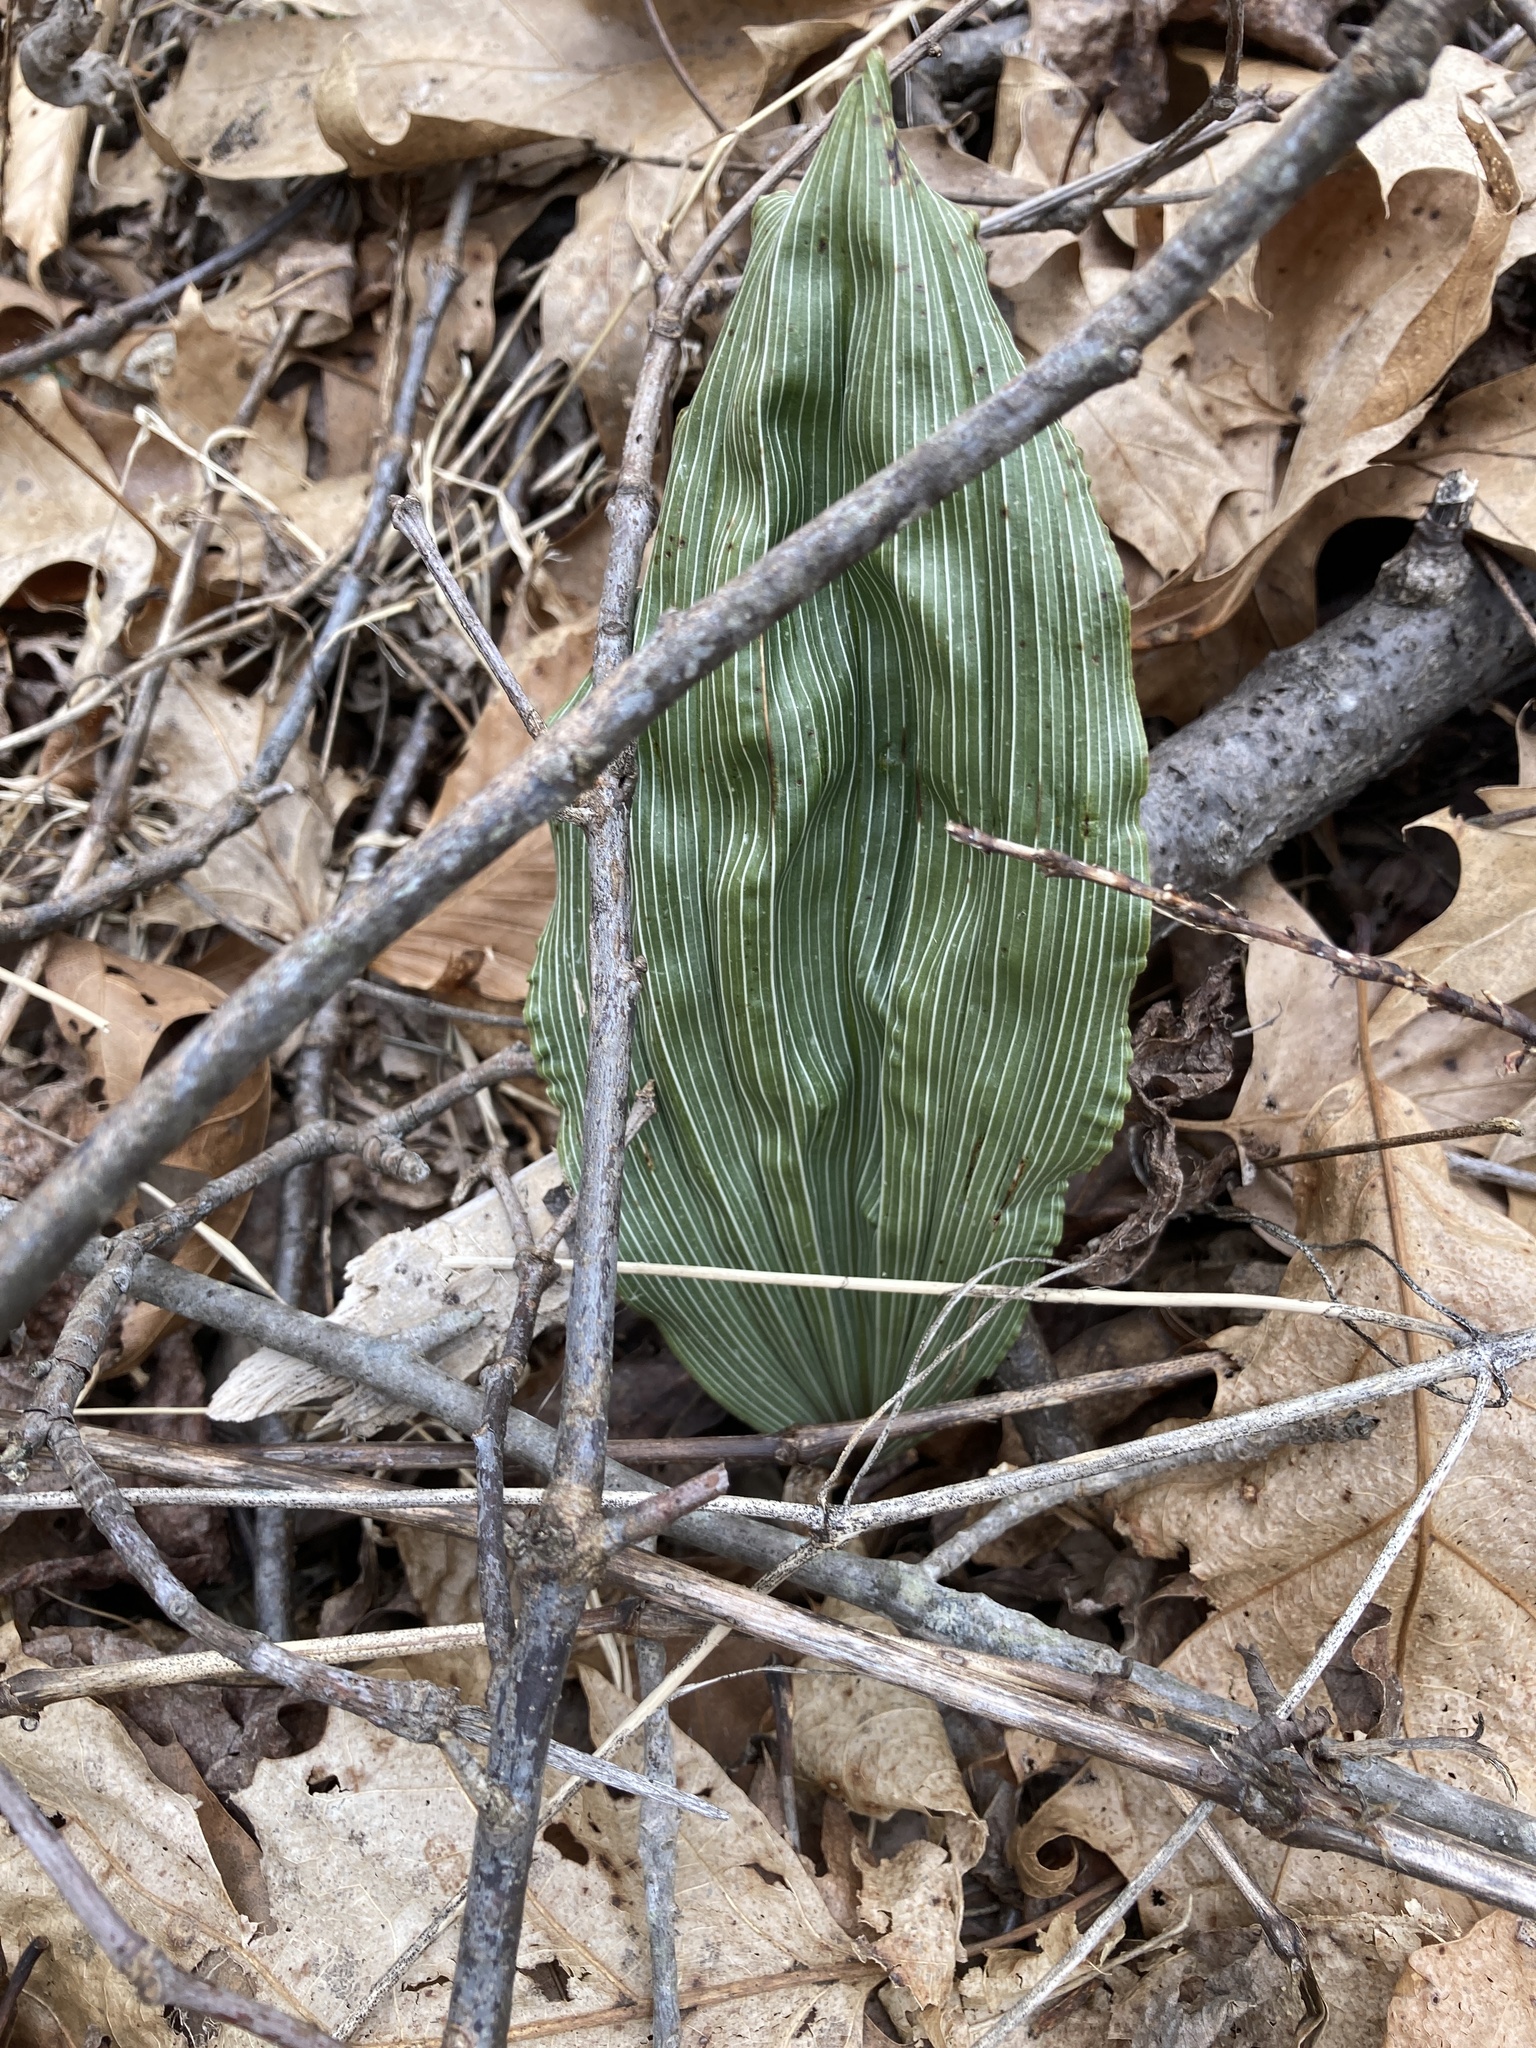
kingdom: Plantae
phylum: Tracheophyta
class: Liliopsida
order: Asparagales
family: Orchidaceae
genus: Aplectrum
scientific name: Aplectrum hyemale
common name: Adam-and-eve
